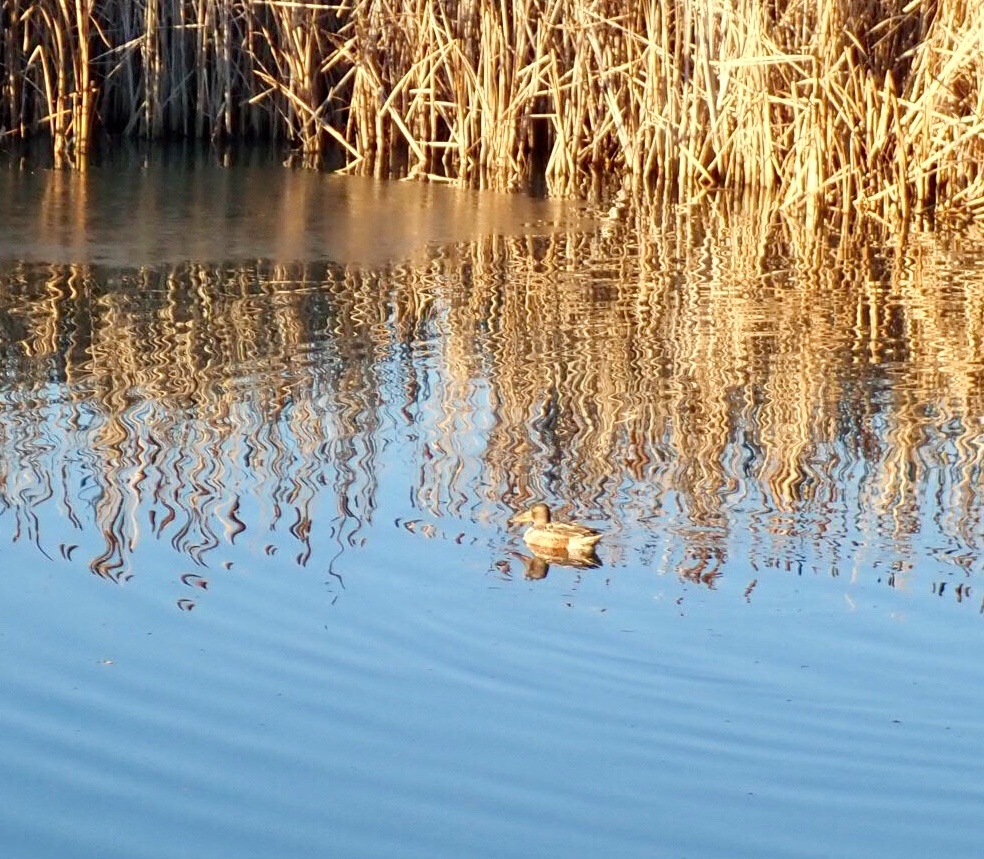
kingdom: Animalia
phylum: Chordata
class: Aves
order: Anseriformes
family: Anatidae
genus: Spatula
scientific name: Spatula clypeata
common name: Northern shoveler
